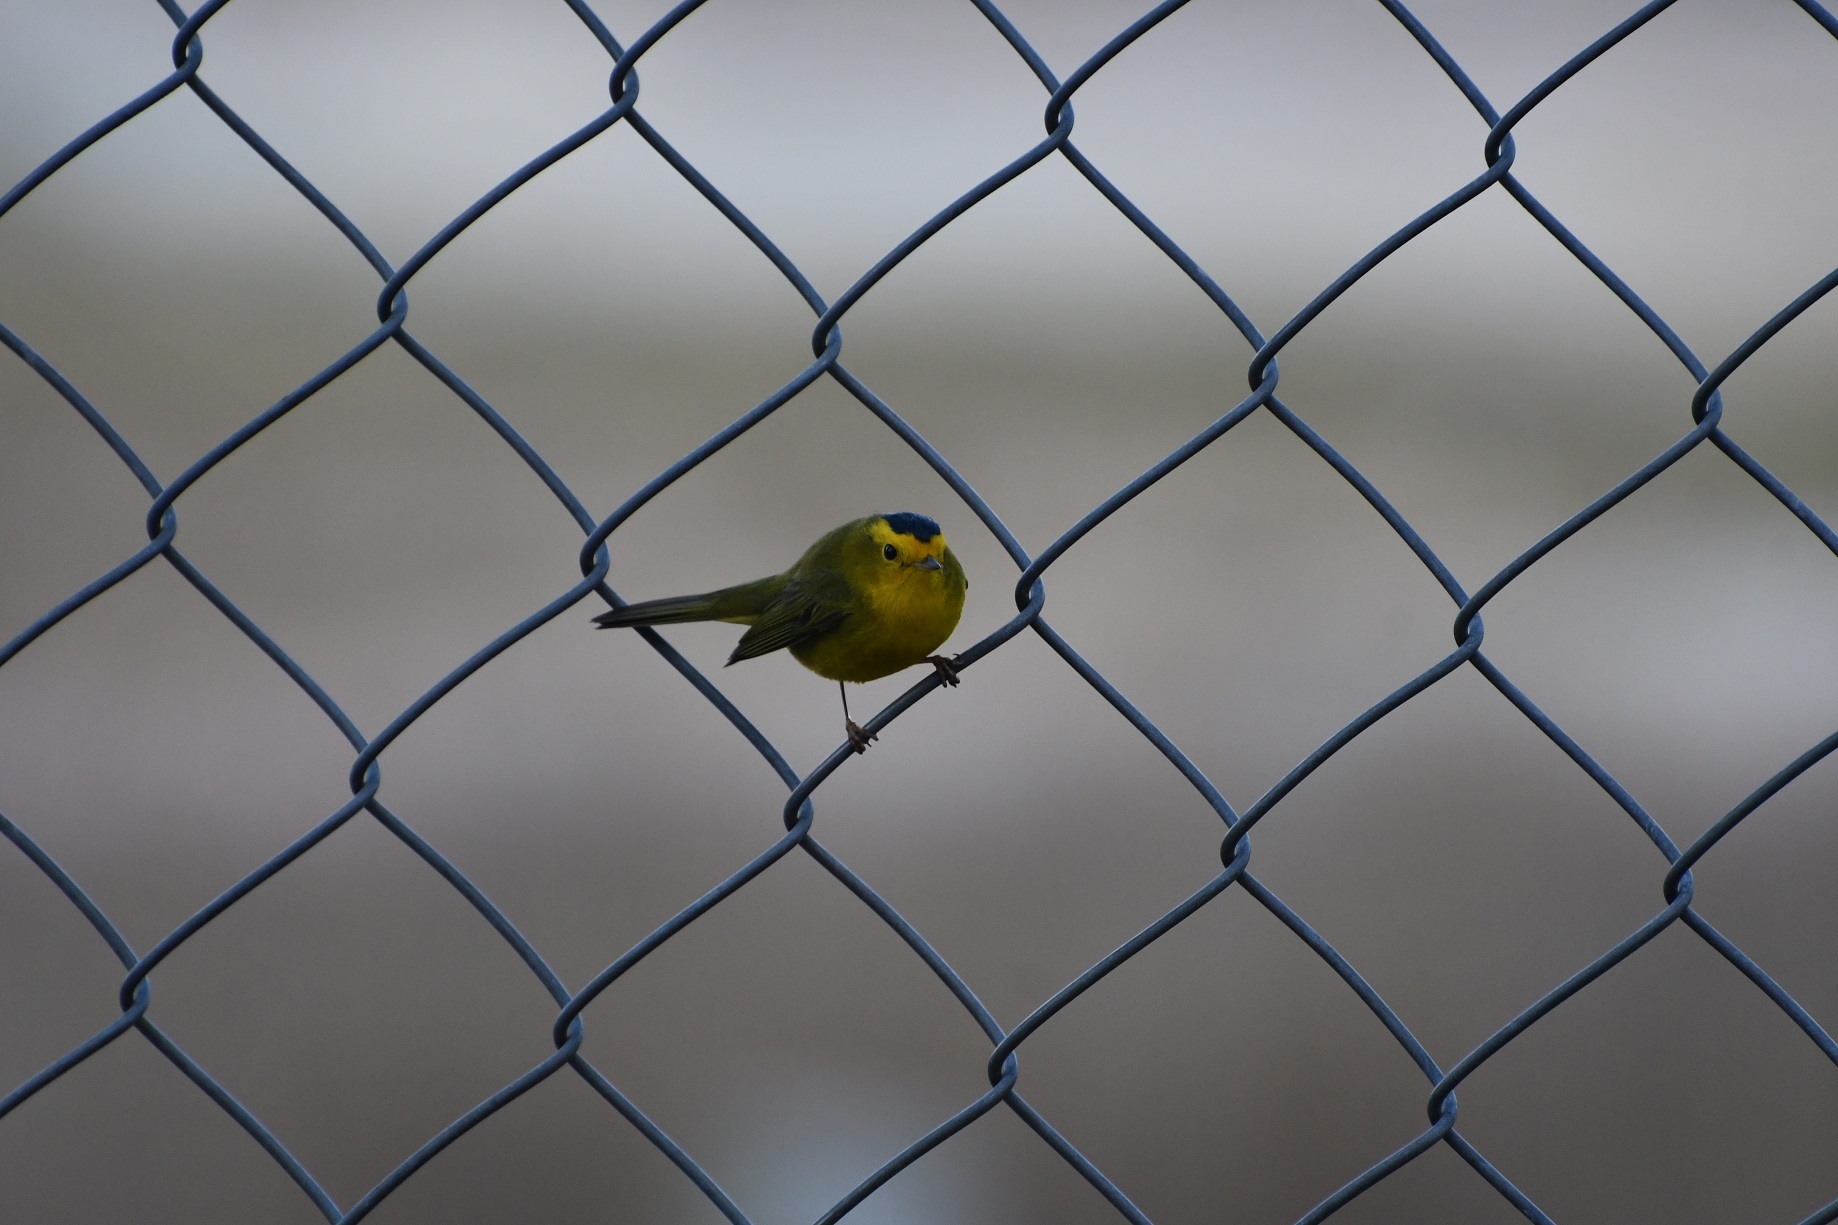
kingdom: Animalia
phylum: Chordata
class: Aves
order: Passeriformes
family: Parulidae
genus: Cardellina
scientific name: Cardellina pusilla
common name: Wilson's warbler
